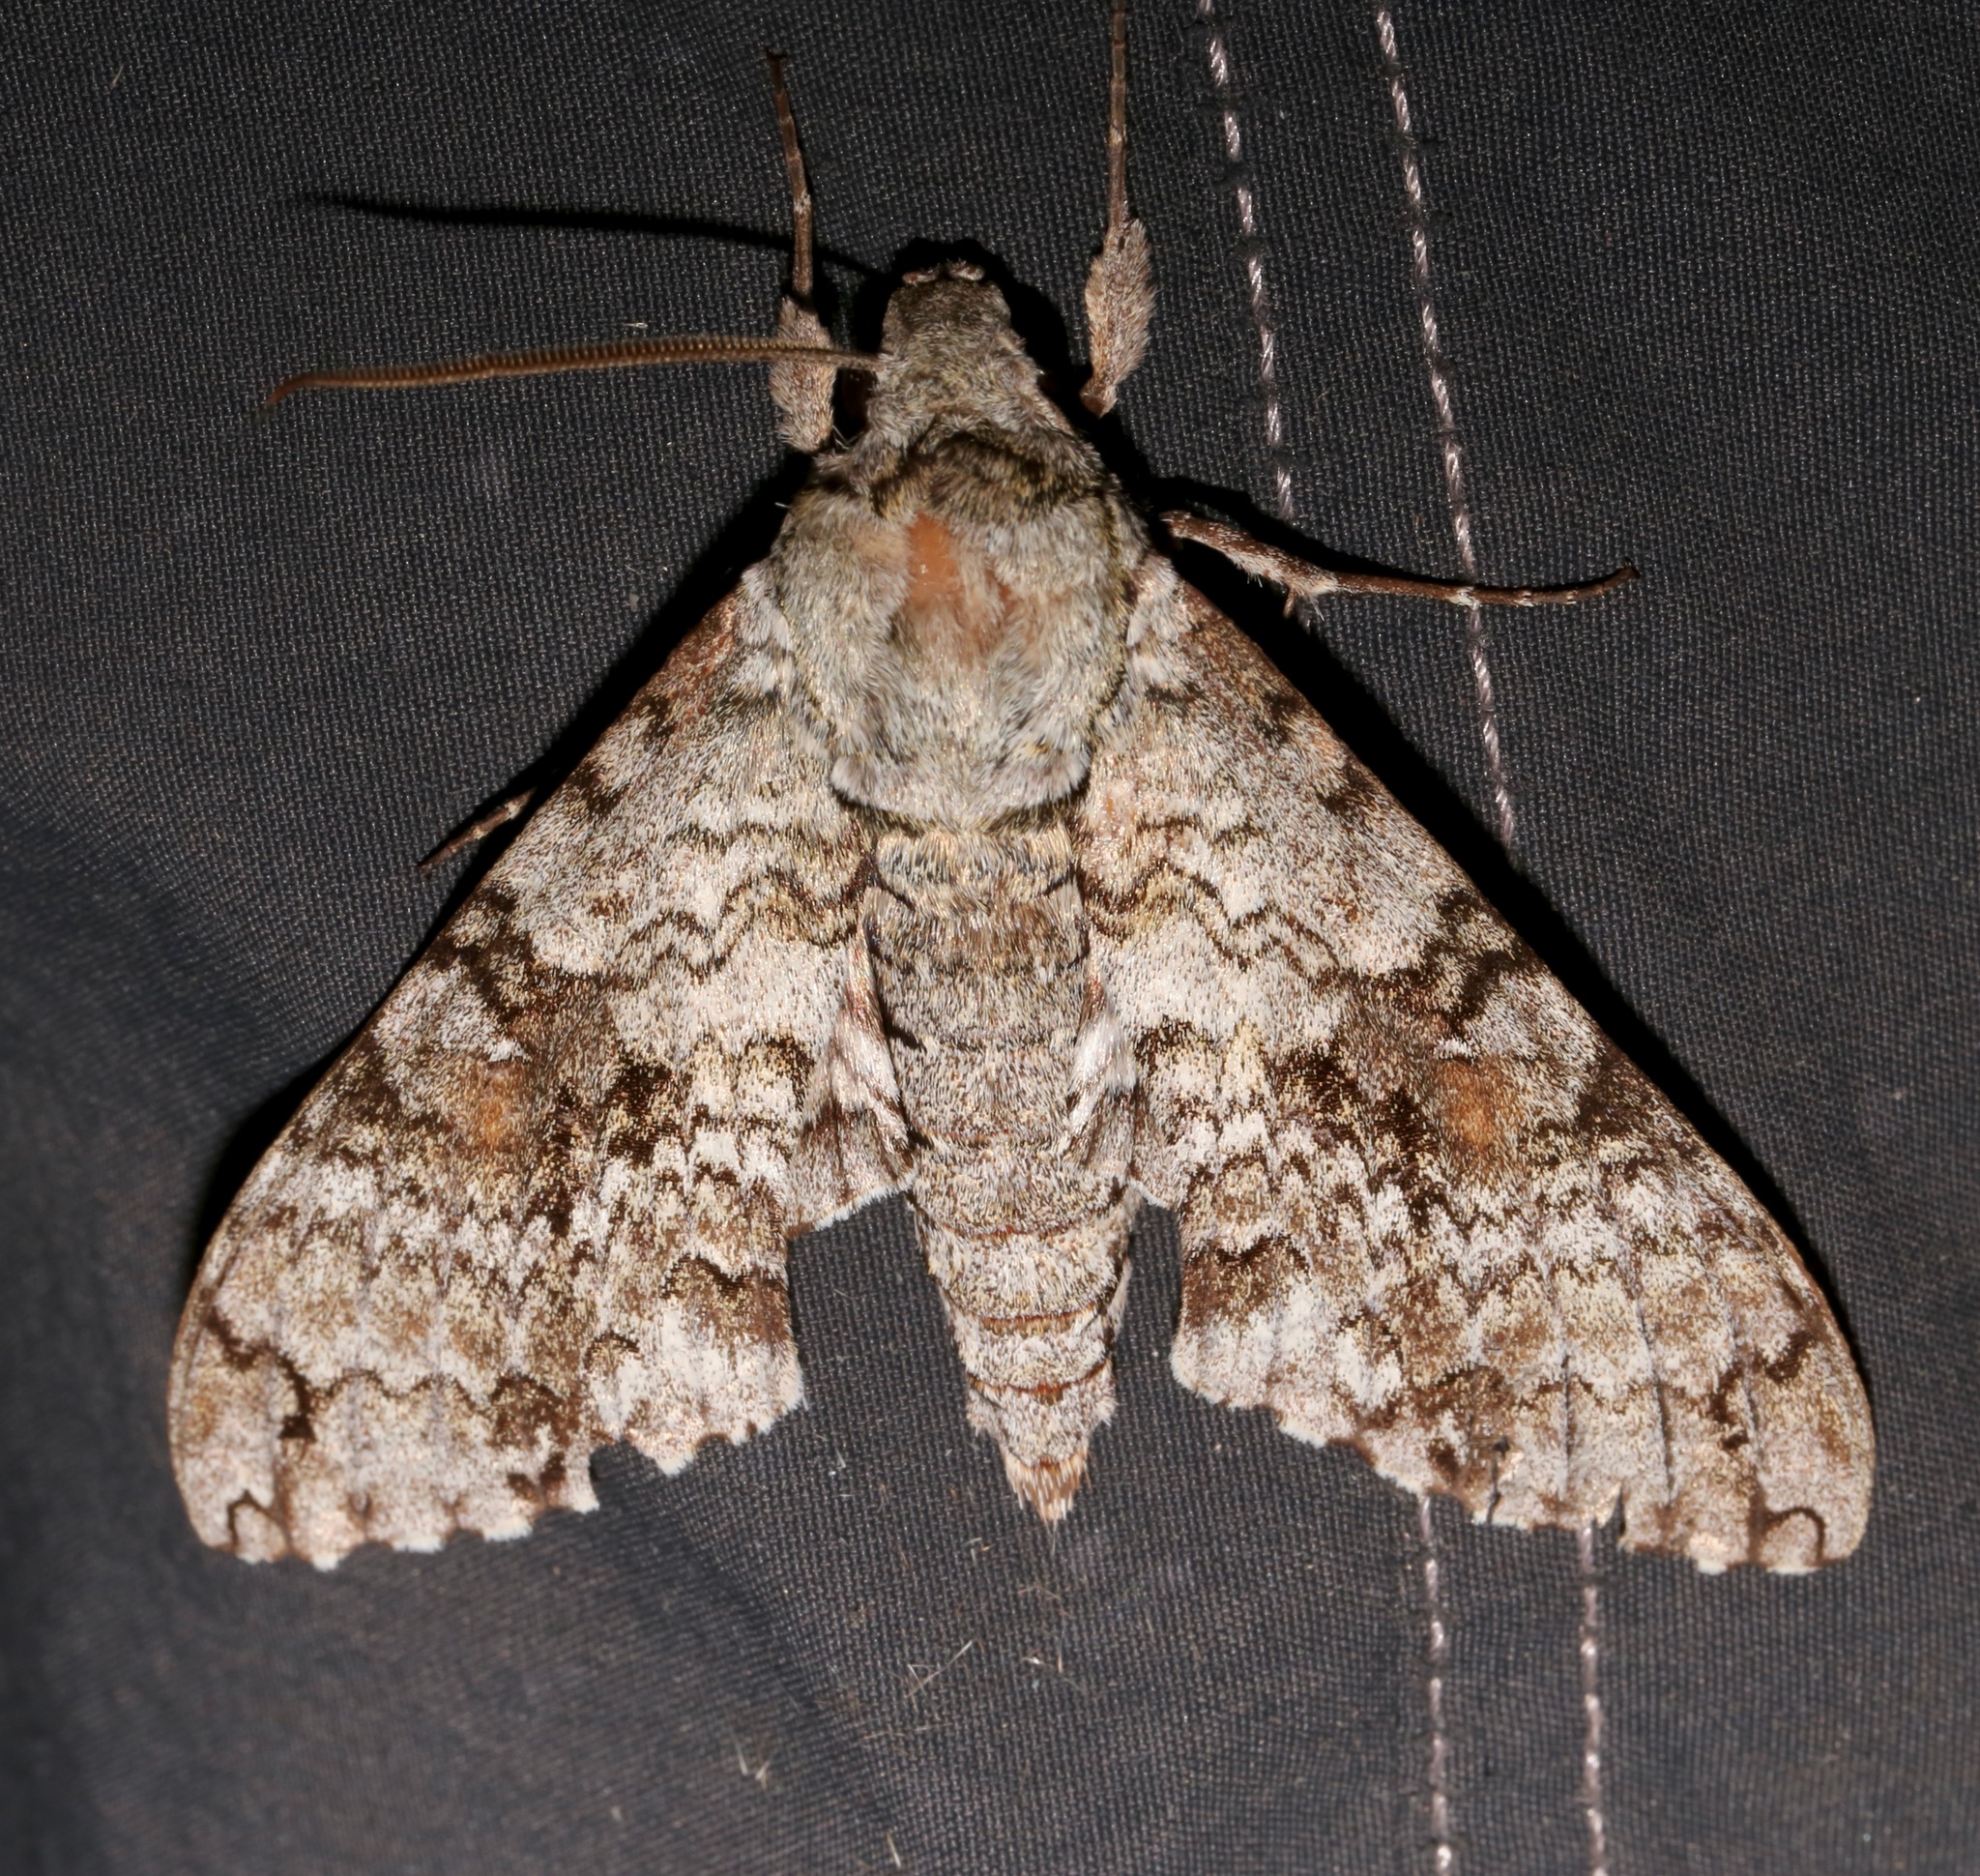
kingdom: Animalia
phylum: Arthropoda
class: Insecta
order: Lepidoptera
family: Sphingidae
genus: Manduca
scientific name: Manduca florestan
